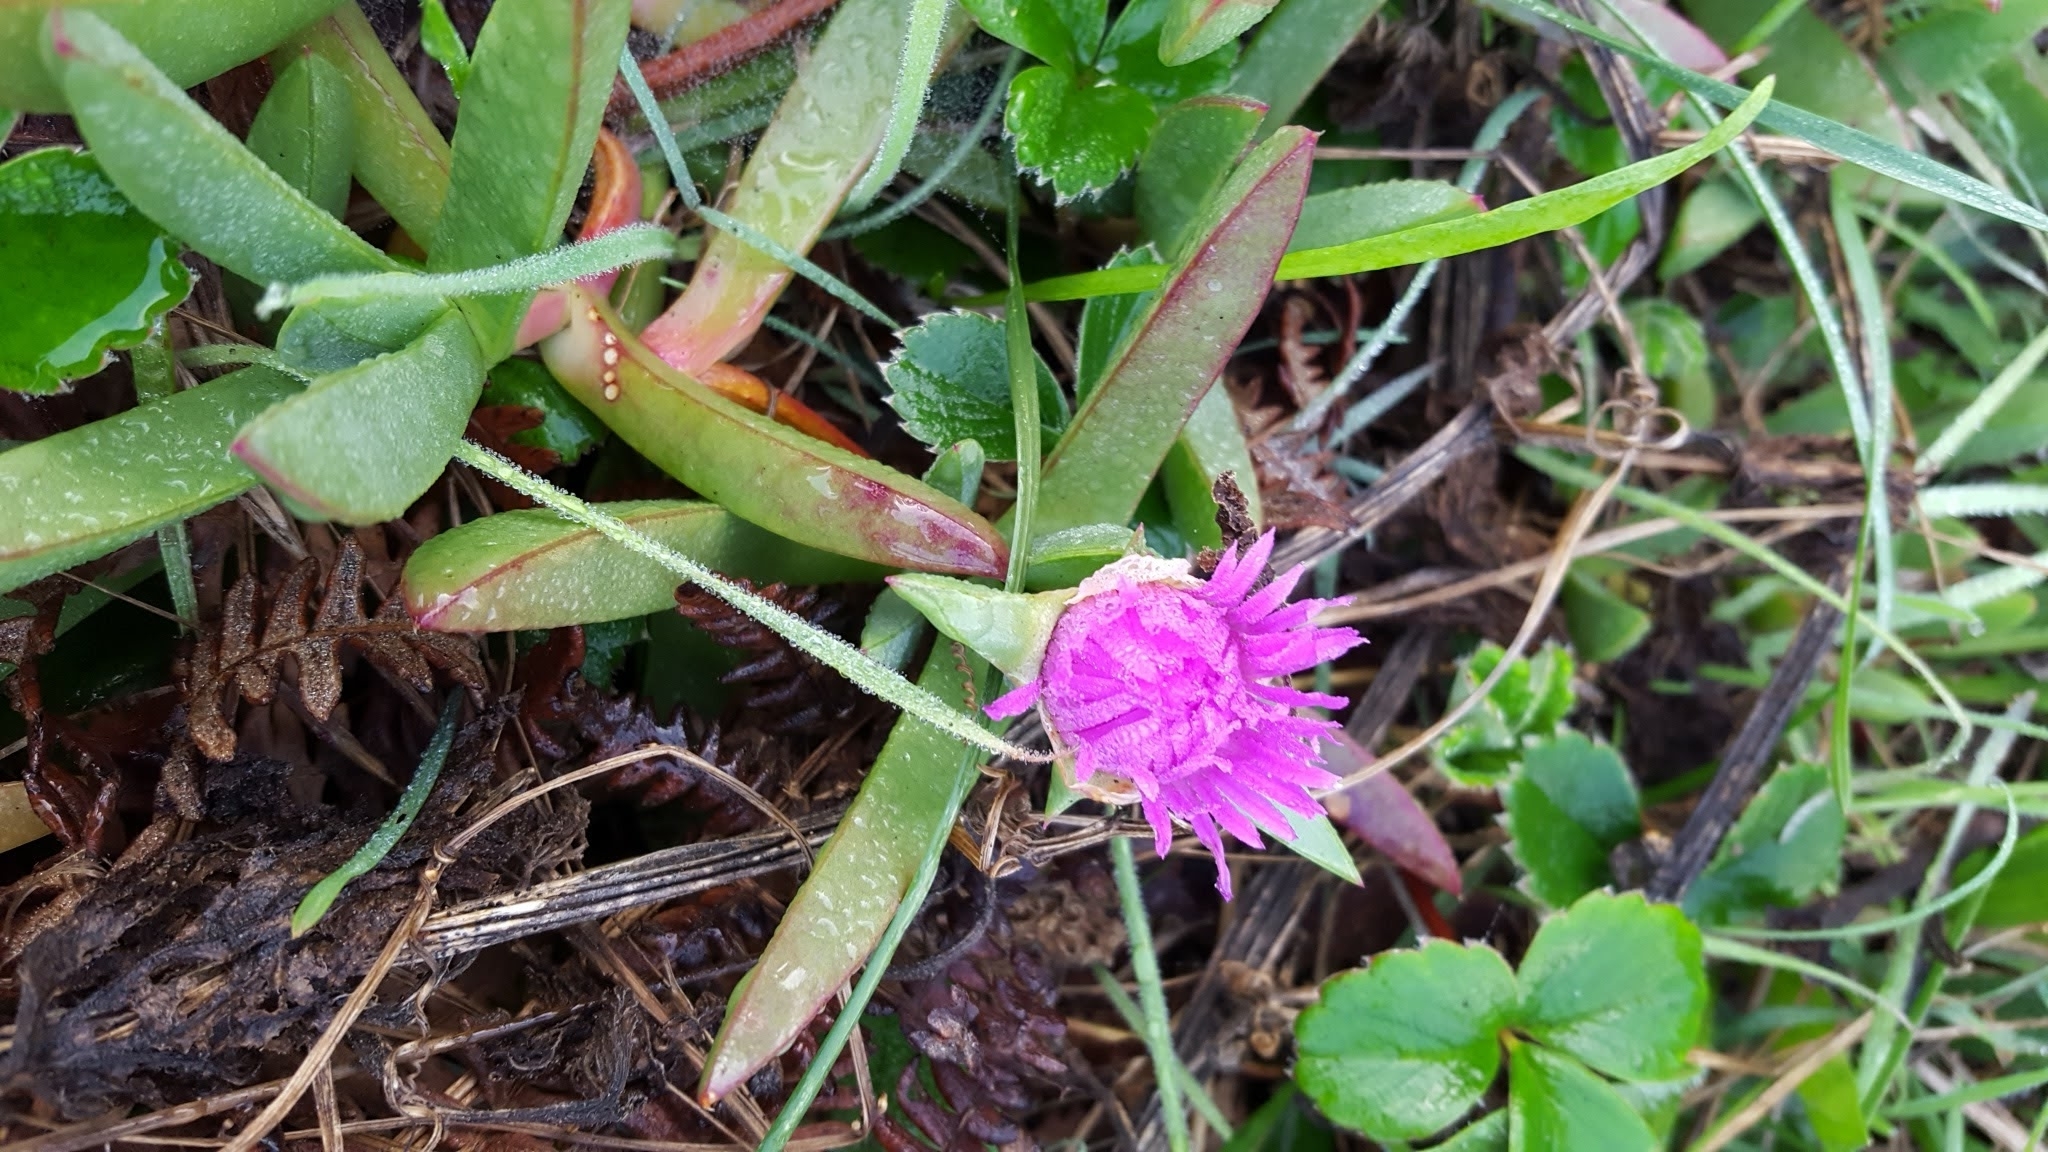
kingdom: Plantae
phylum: Tracheophyta
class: Magnoliopsida
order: Caryophyllales
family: Aizoaceae
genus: Carpobrotus
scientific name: Carpobrotus chilensis
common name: Sea fig
